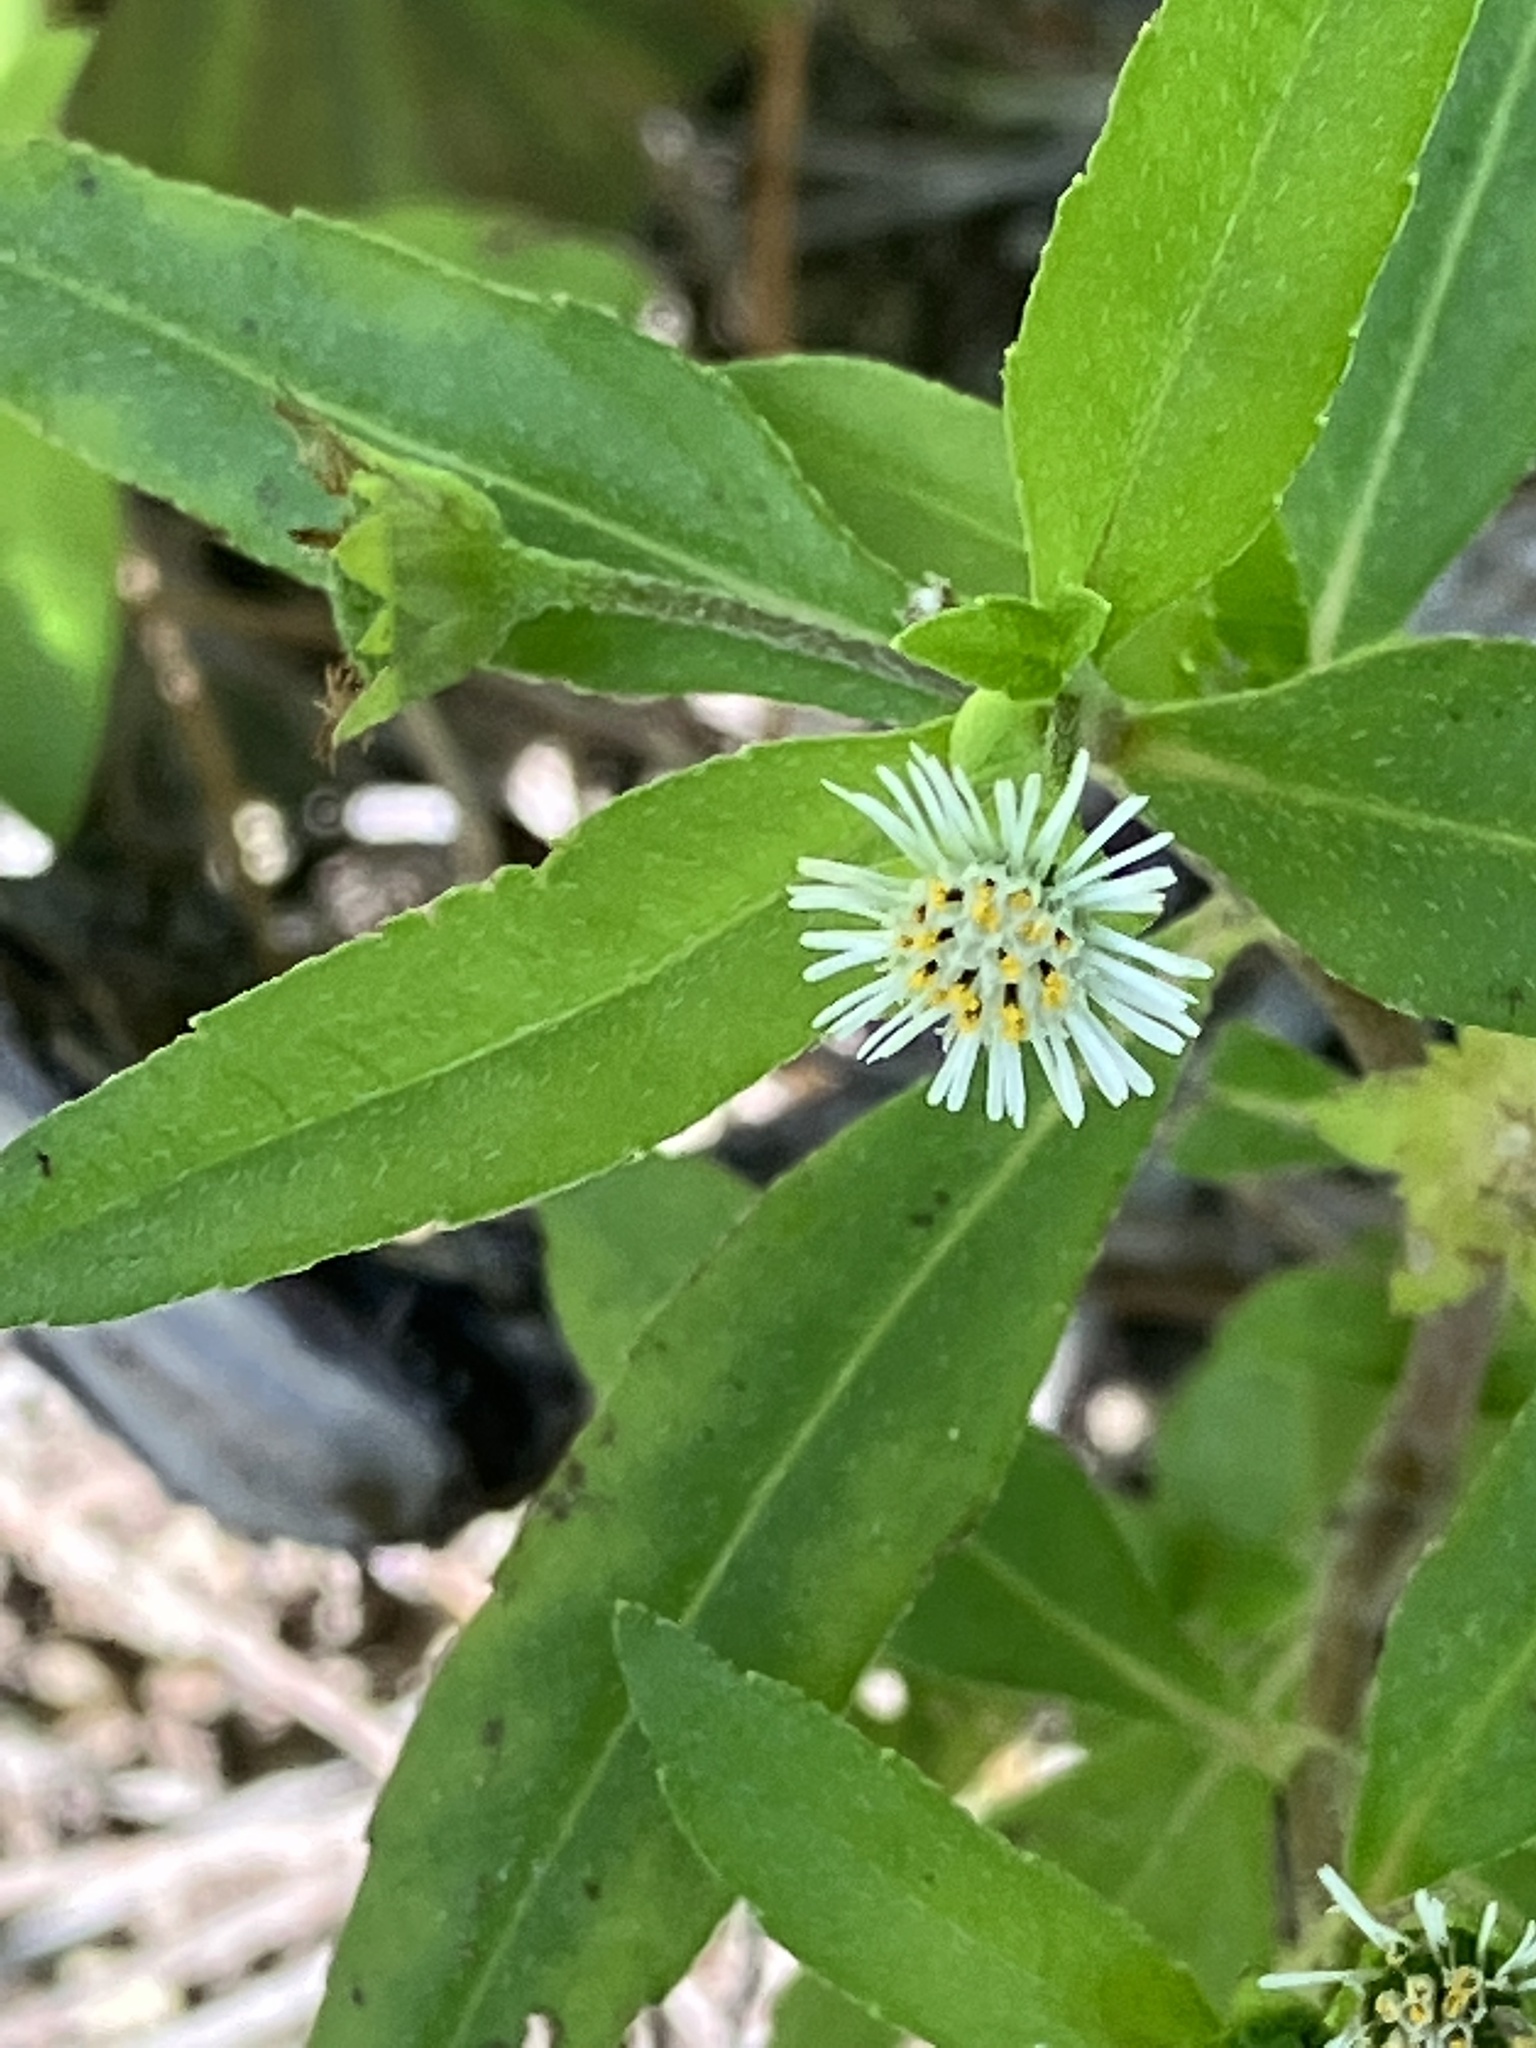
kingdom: Plantae
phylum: Tracheophyta
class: Magnoliopsida
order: Asterales
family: Asteraceae
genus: Eclipta
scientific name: Eclipta prostrata
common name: False daisy
